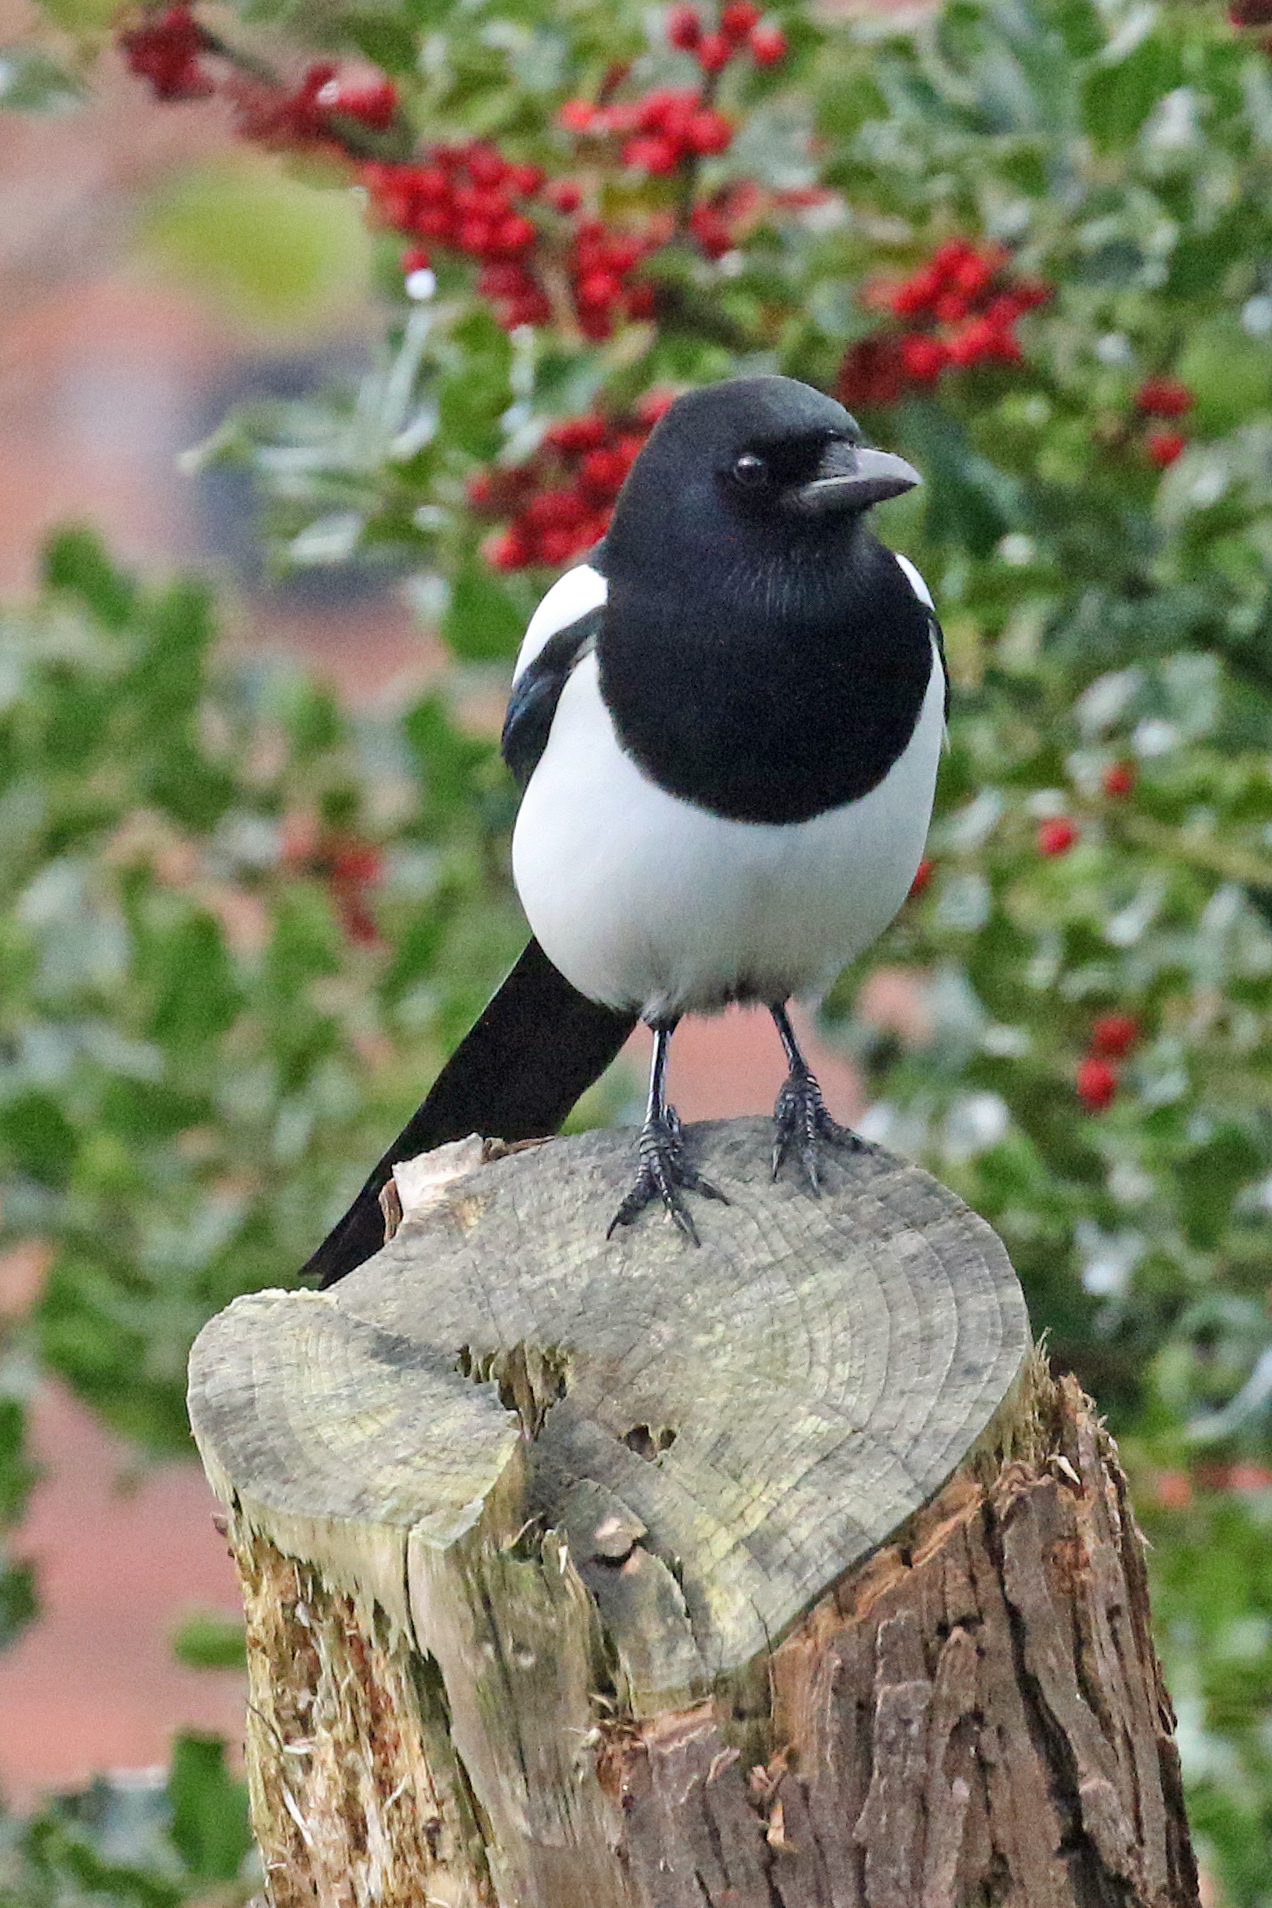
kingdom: Animalia
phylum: Chordata
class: Aves
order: Passeriformes
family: Corvidae
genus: Pica
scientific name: Pica pica
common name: Eurasian magpie
